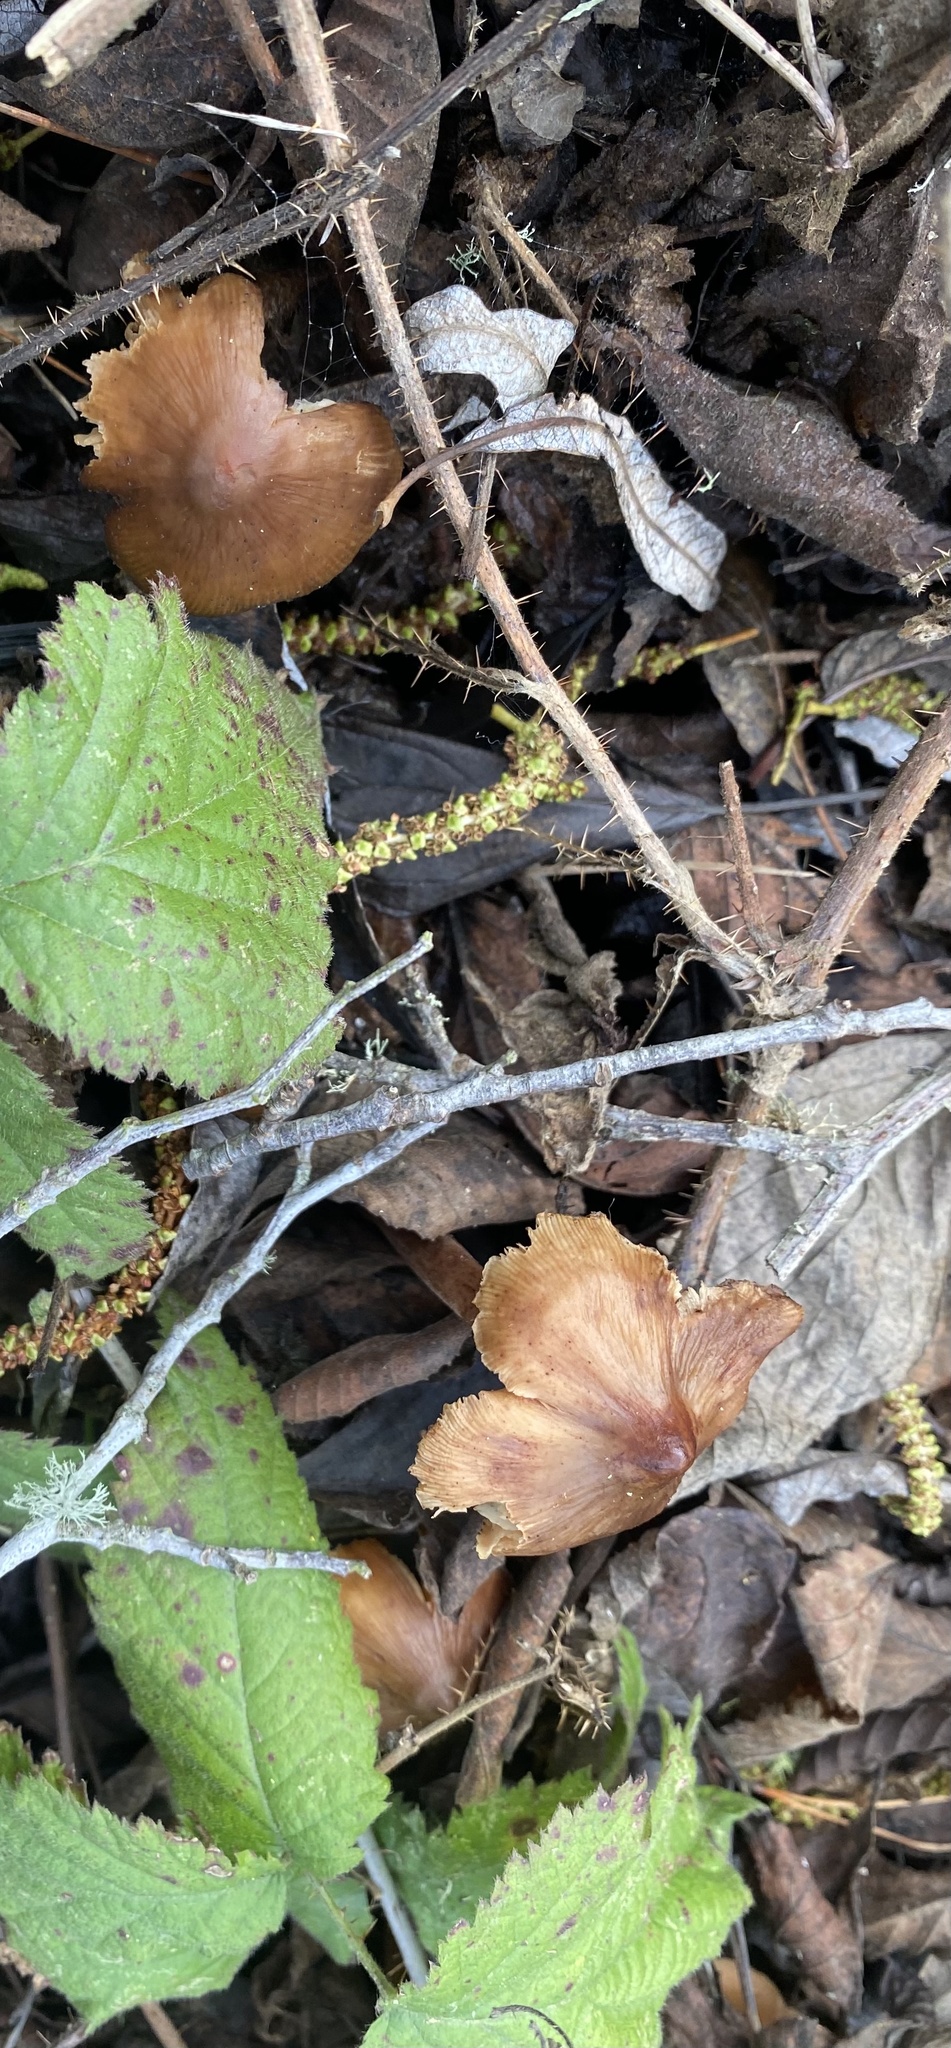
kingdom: Fungi
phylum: Basidiomycota
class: Agaricomycetes
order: Agaricales
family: Tricholomataceae
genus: Caulorhiza
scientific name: Caulorhiza umbonata
